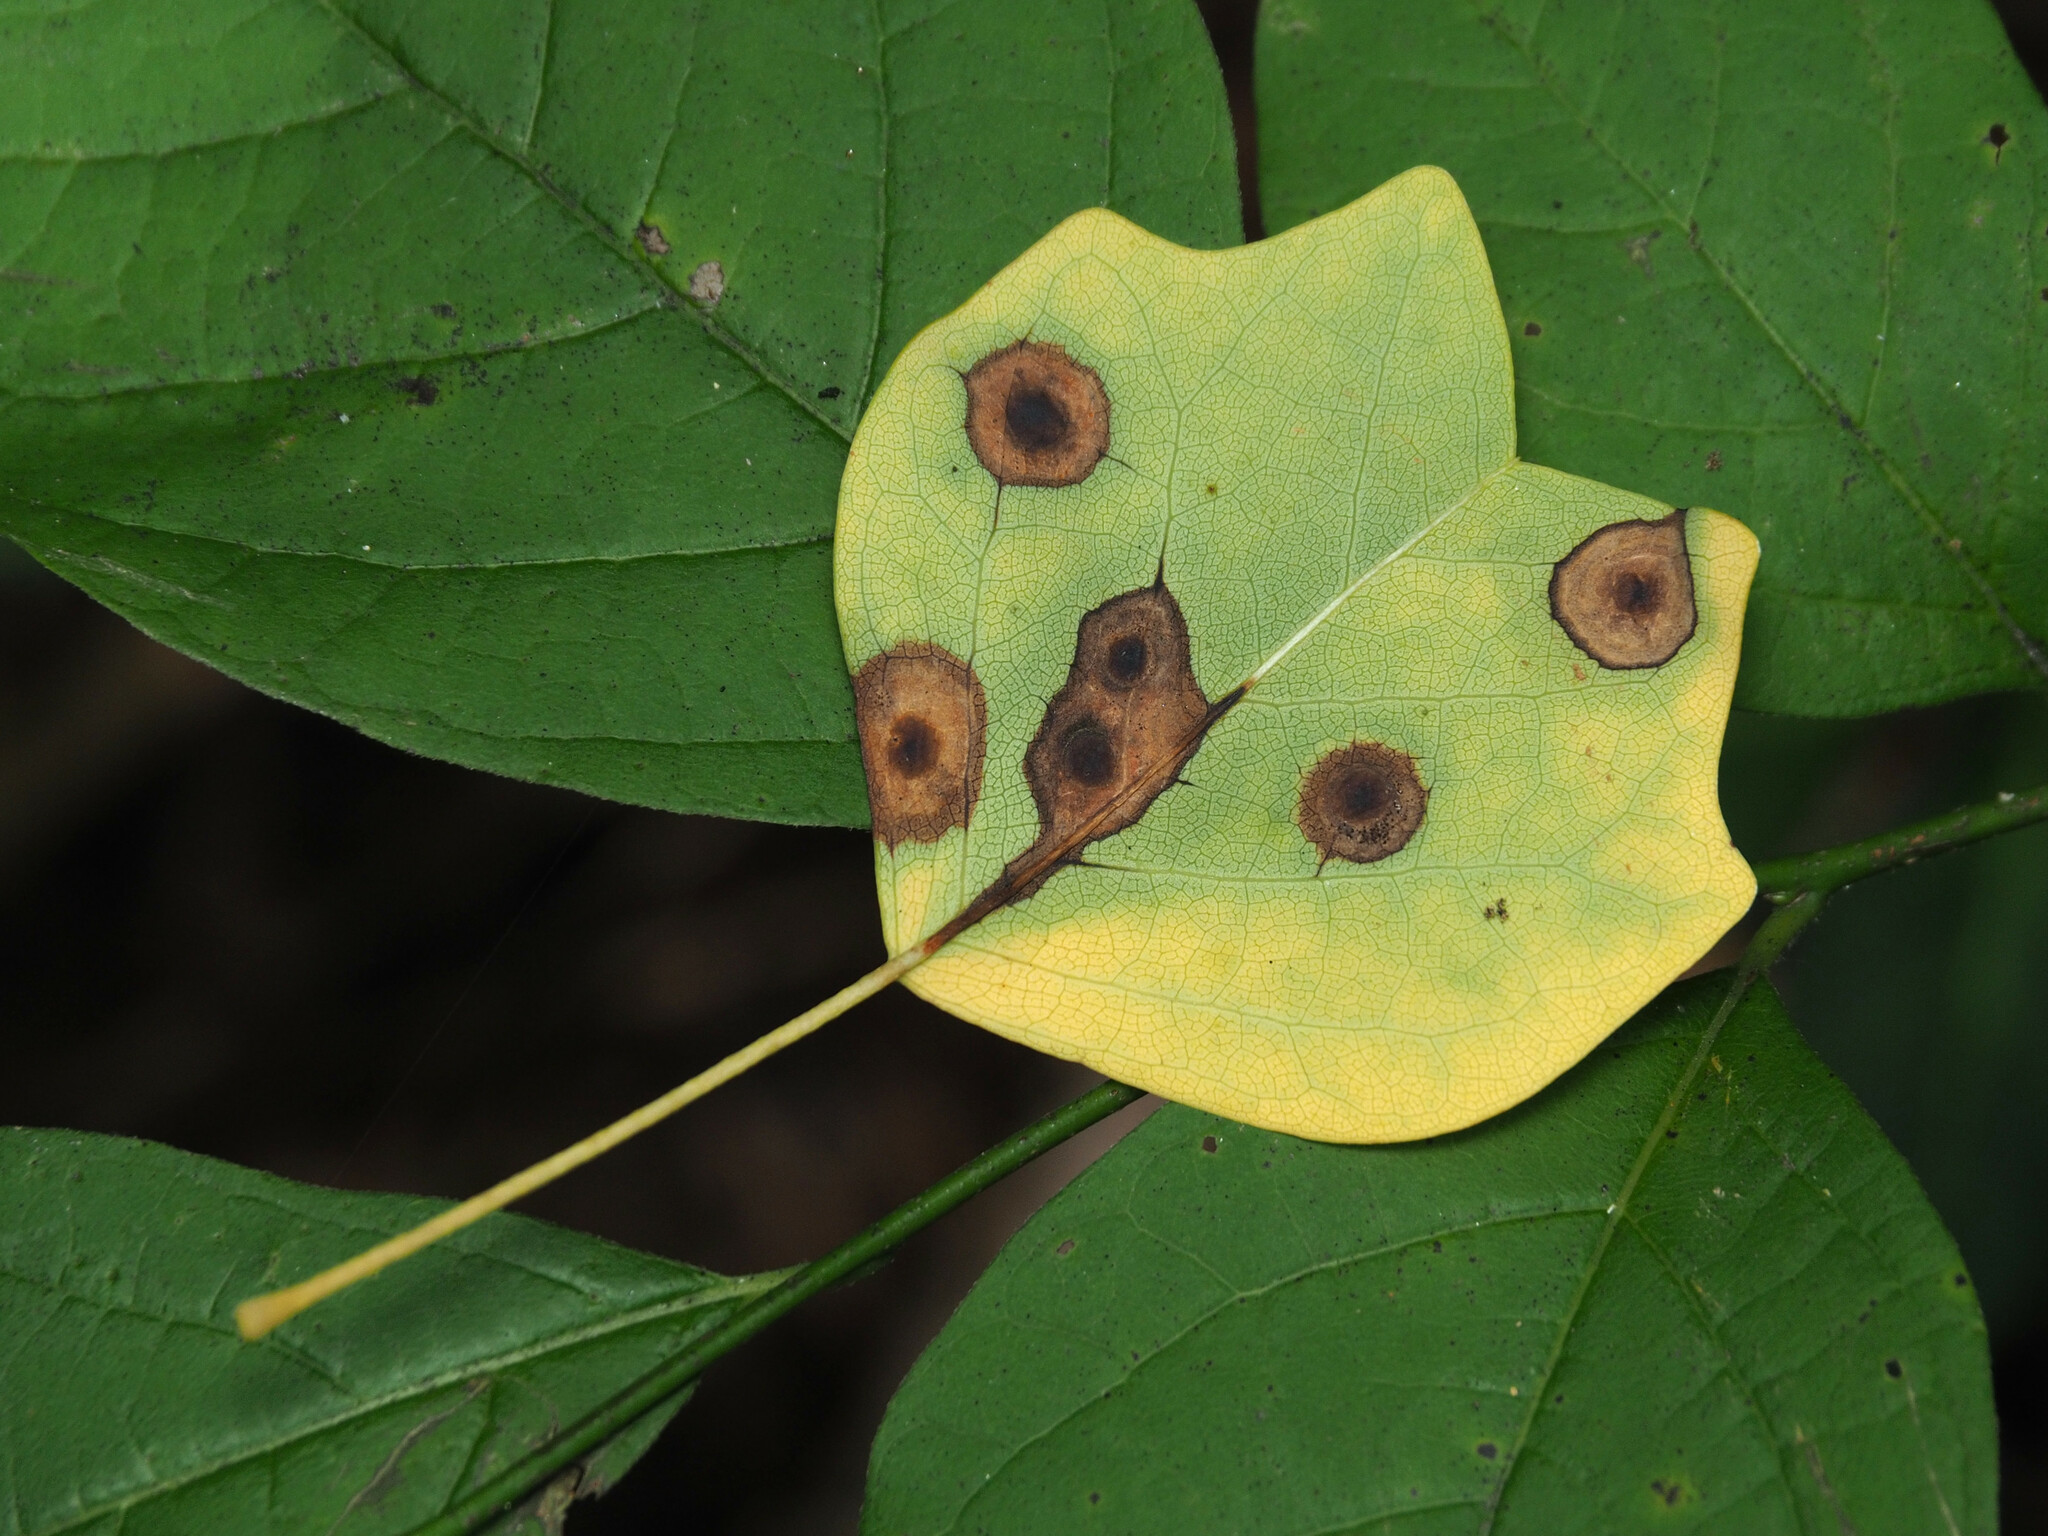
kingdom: Animalia
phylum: Arthropoda
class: Insecta
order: Diptera
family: Cecidomyiidae
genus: Resseliella
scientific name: Resseliella liriodendri
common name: Tulip tree leaf spot gall midge
